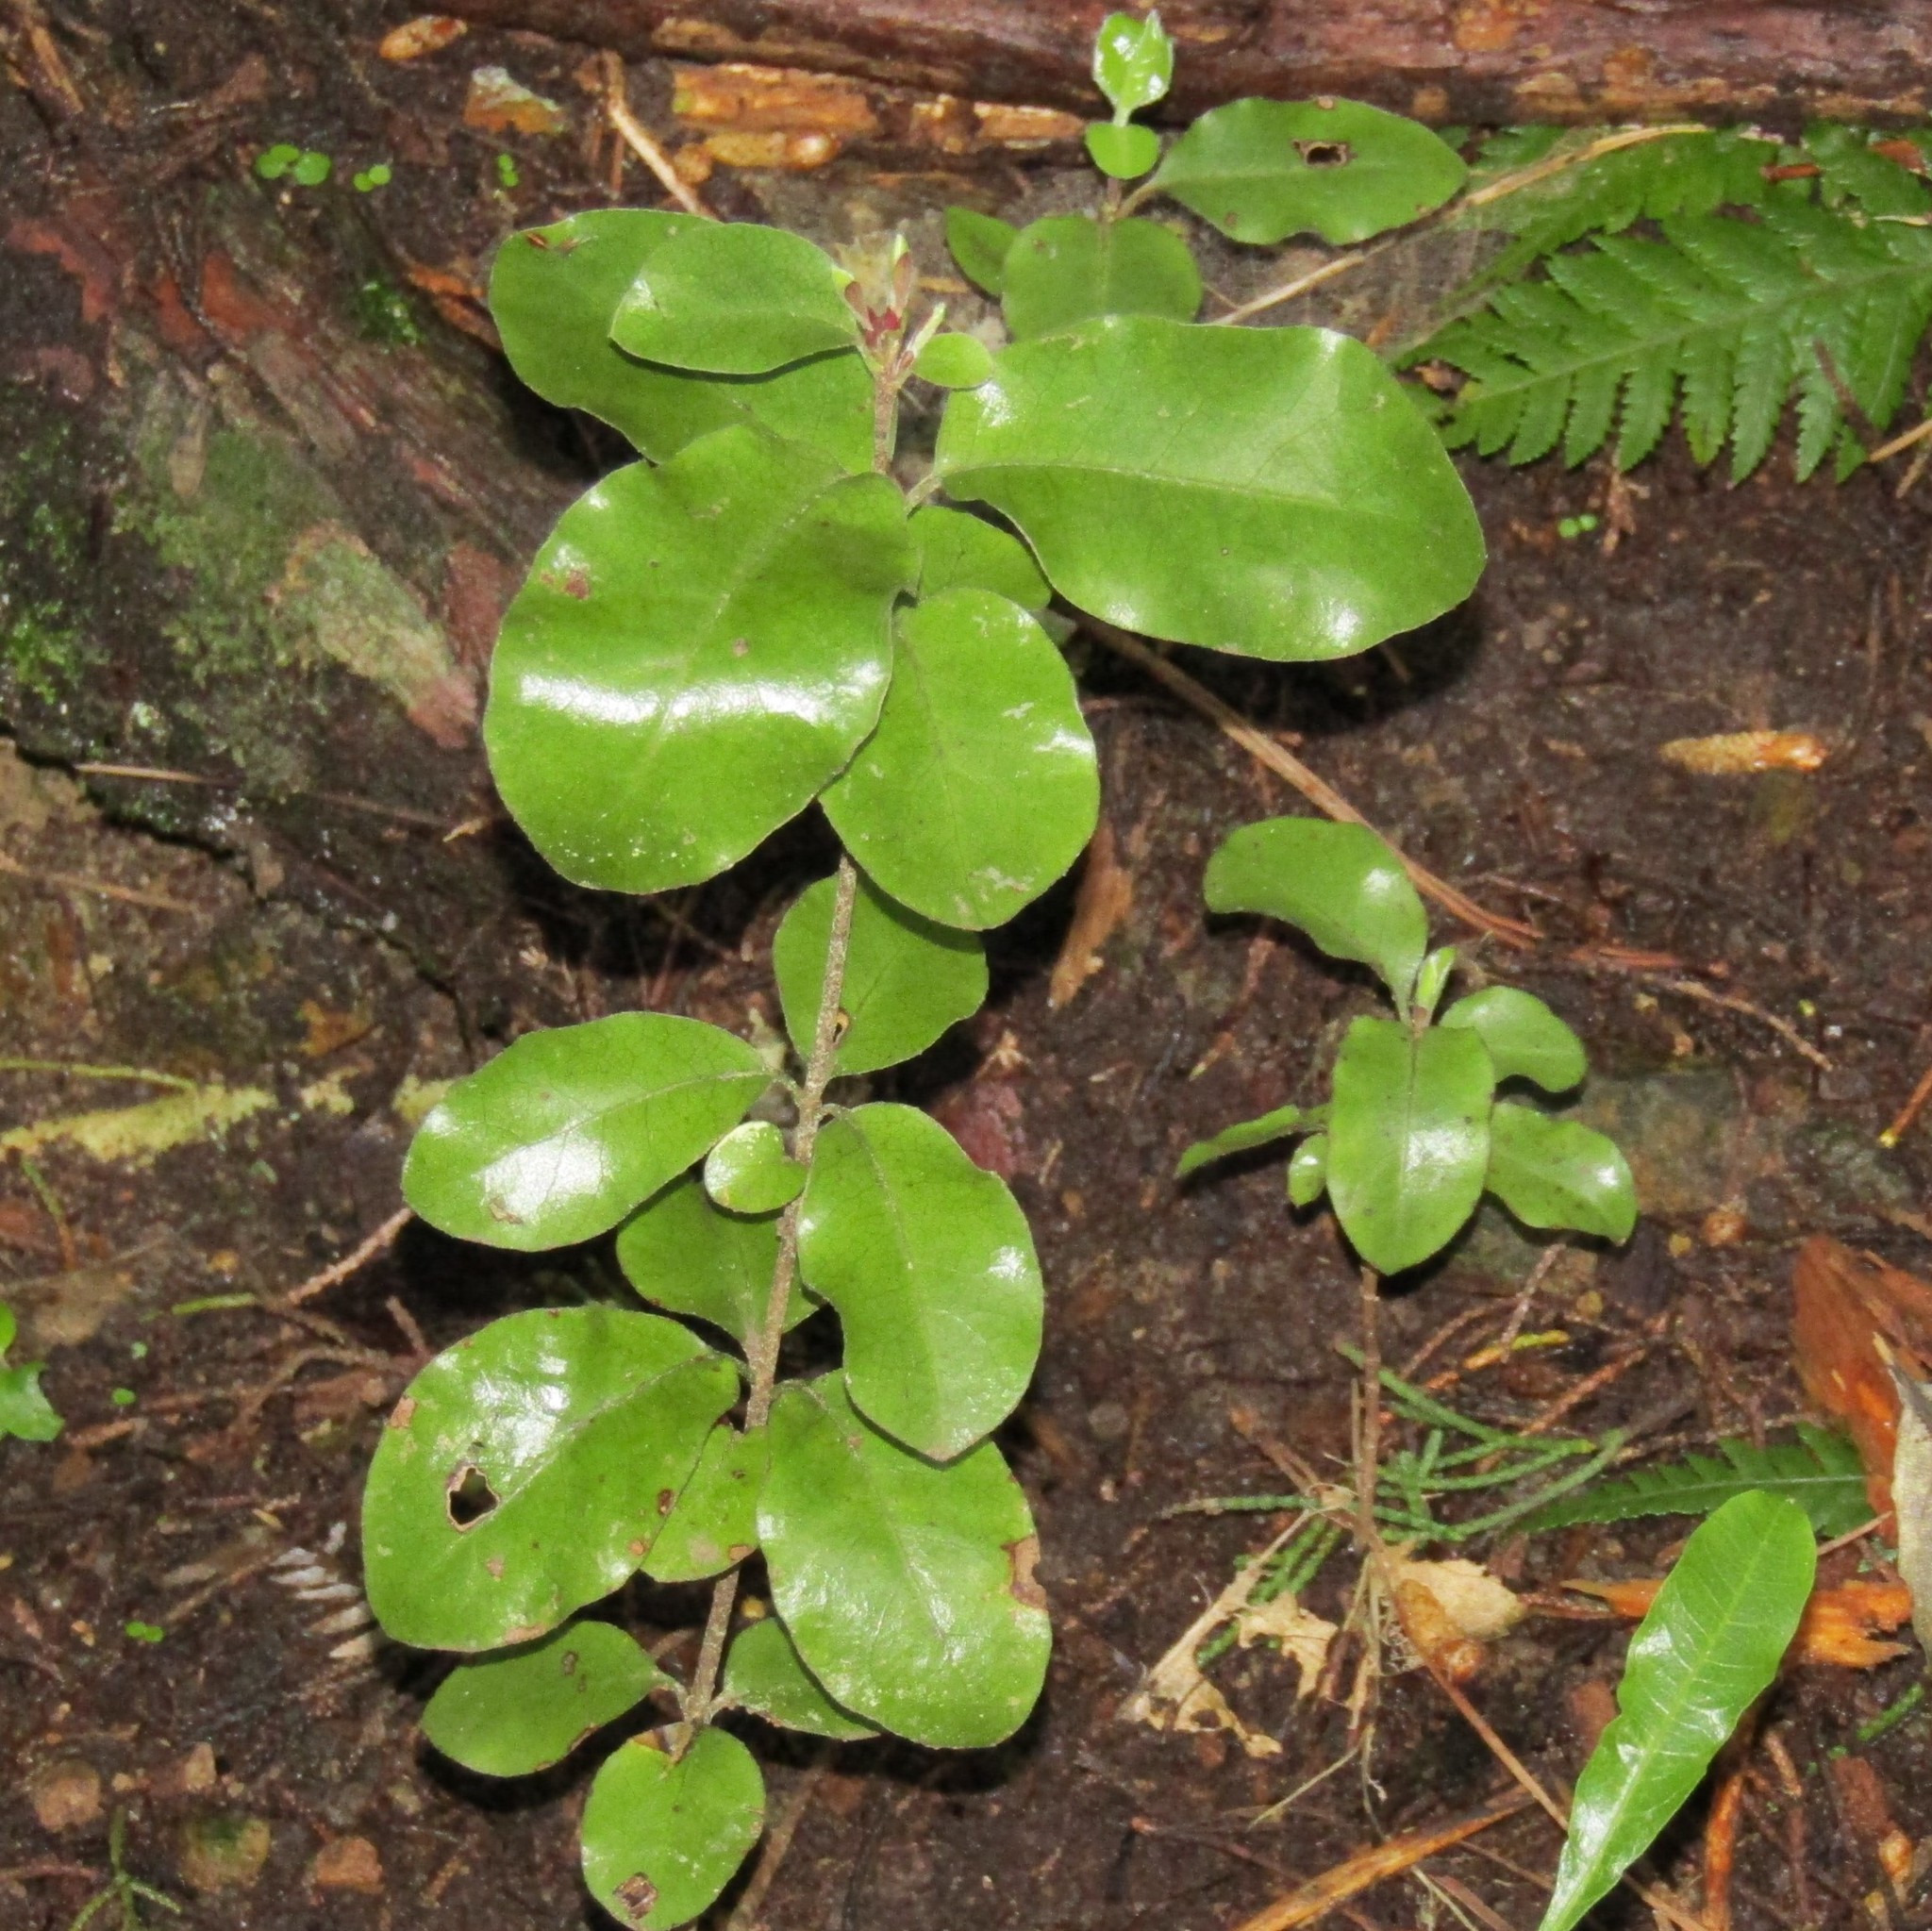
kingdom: Plantae
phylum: Tracheophyta
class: Magnoliopsida
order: Apiales
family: Pittosporaceae
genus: Pittosporum
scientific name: Pittosporum tenuifolium
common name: Kohuhu
